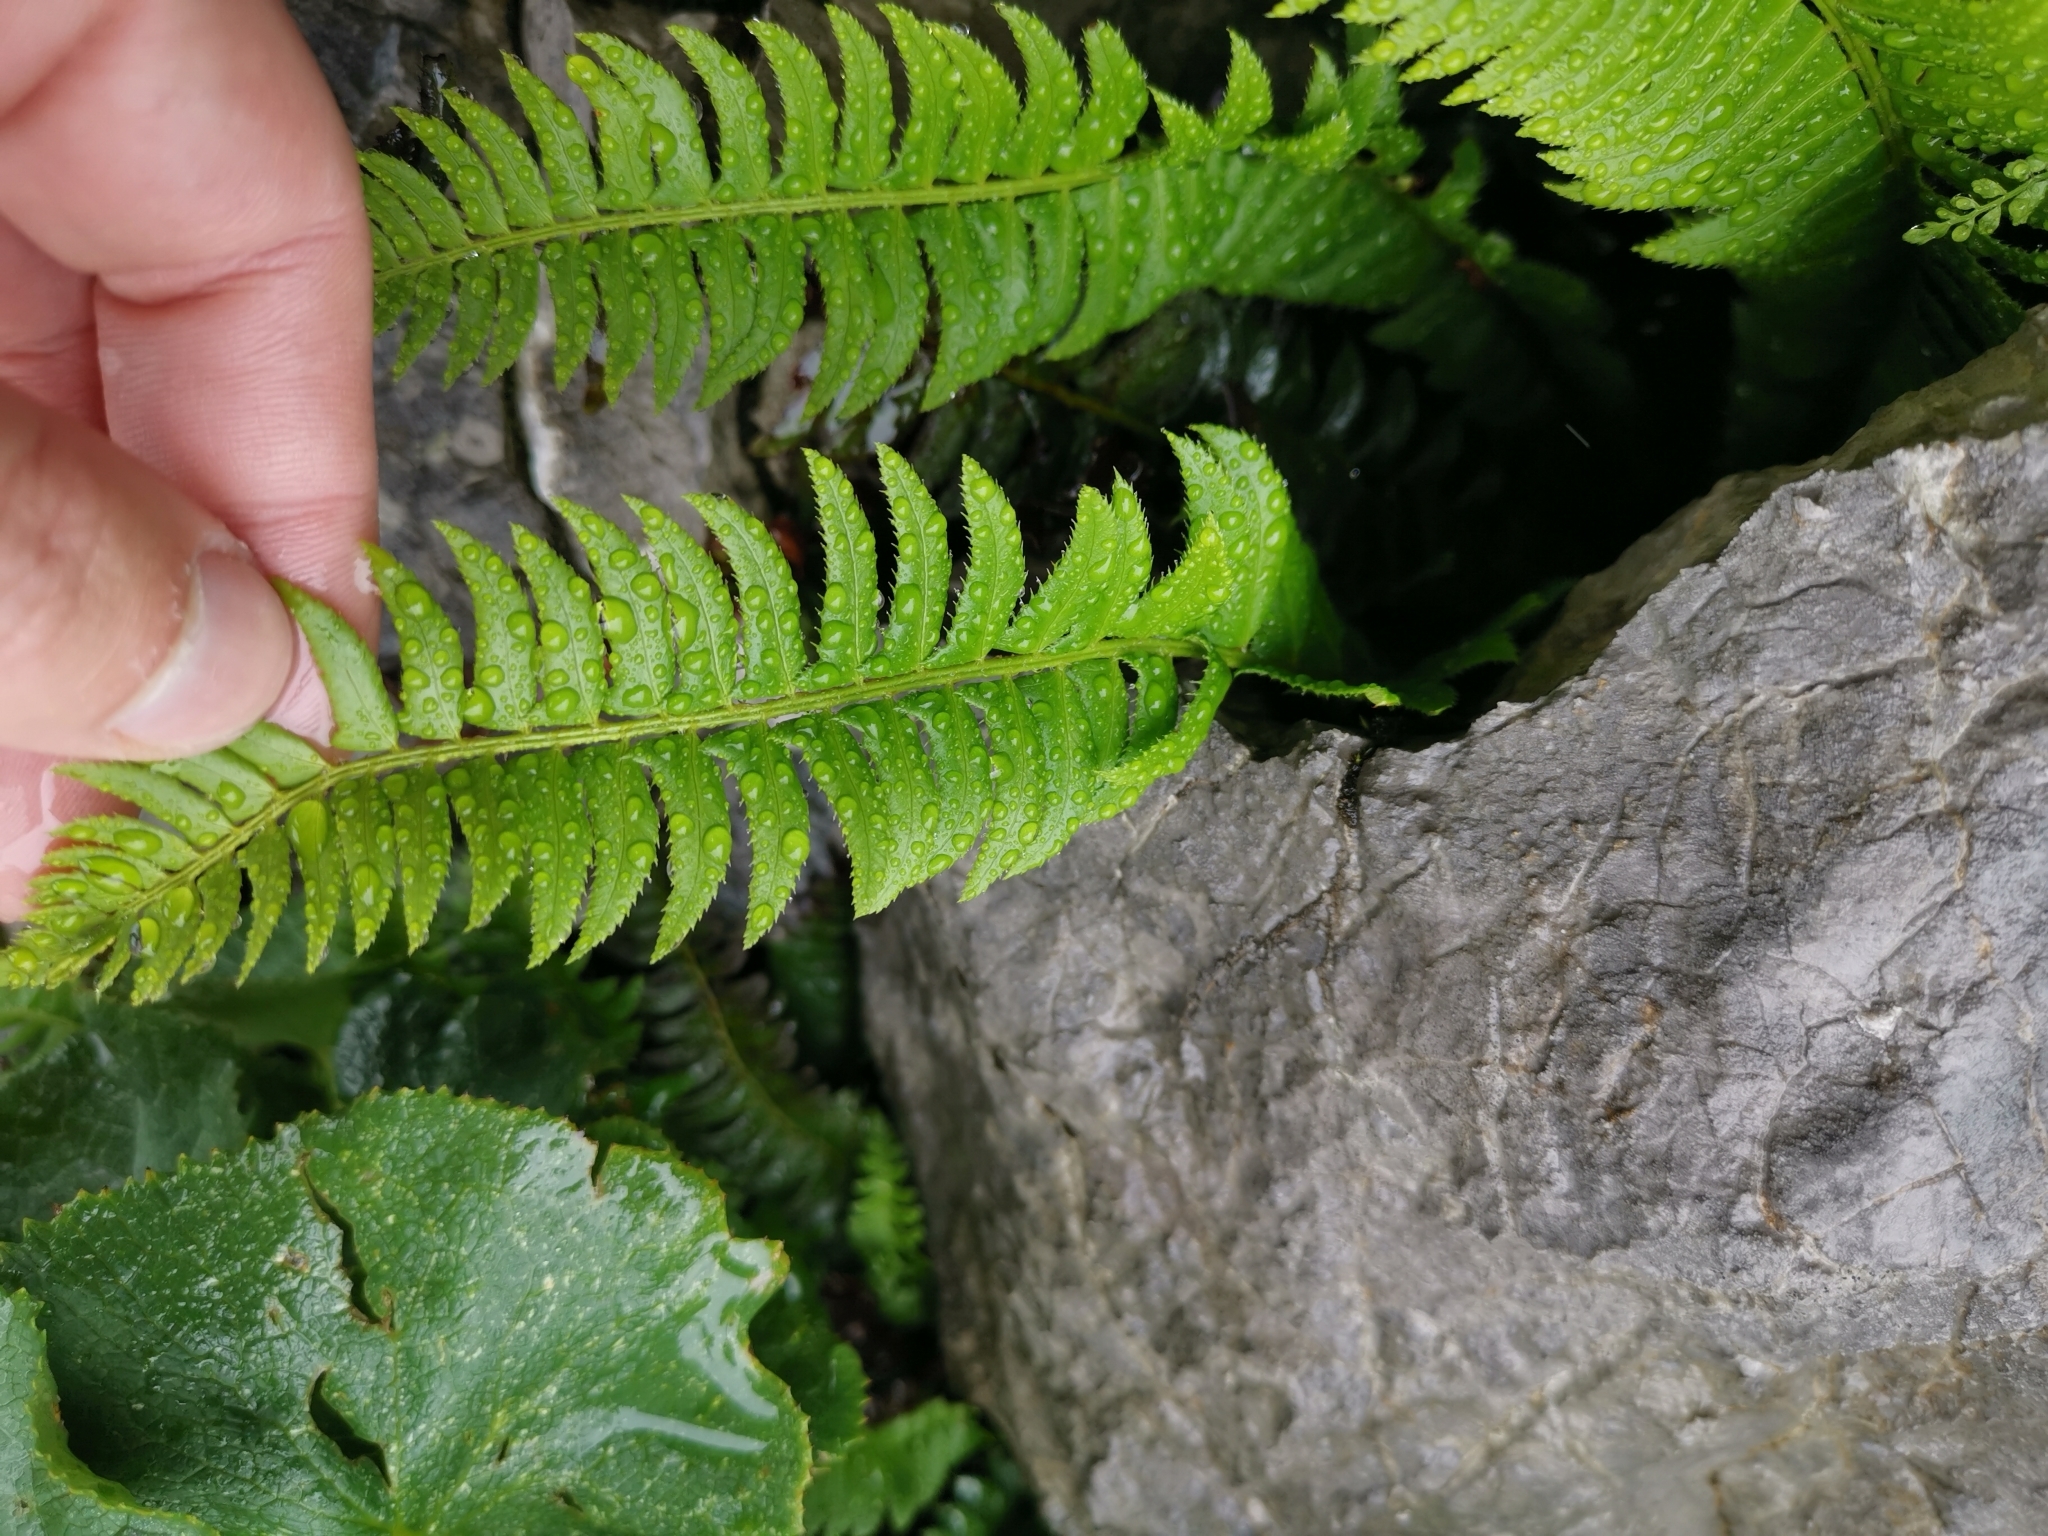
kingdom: Plantae
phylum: Tracheophyta
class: Polypodiopsida
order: Polypodiales
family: Dryopteridaceae
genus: Polystichum
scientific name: Polystichum lonchitis
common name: Holly fern
